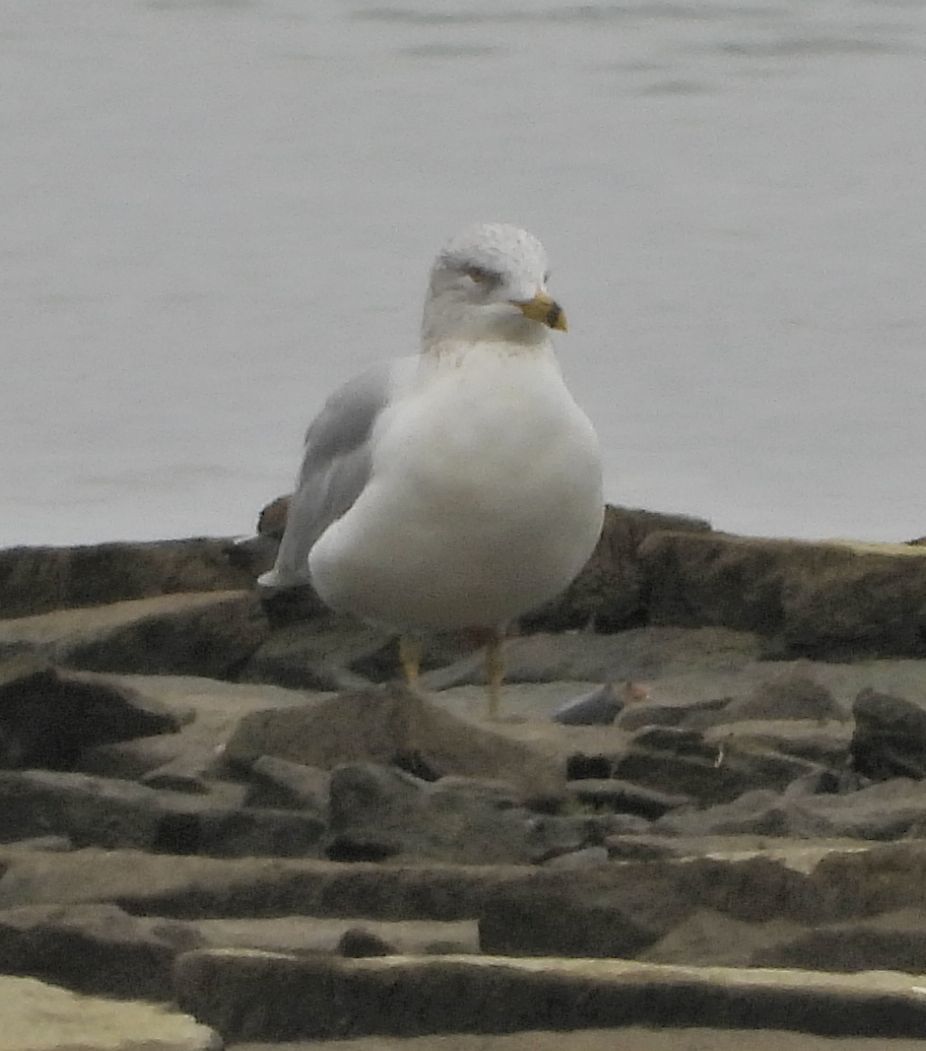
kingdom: Animalia
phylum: Chordata
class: Aves
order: Charadriiformes
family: Laridae
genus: Larus
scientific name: Larus delawarensis
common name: Ring-billed gull
